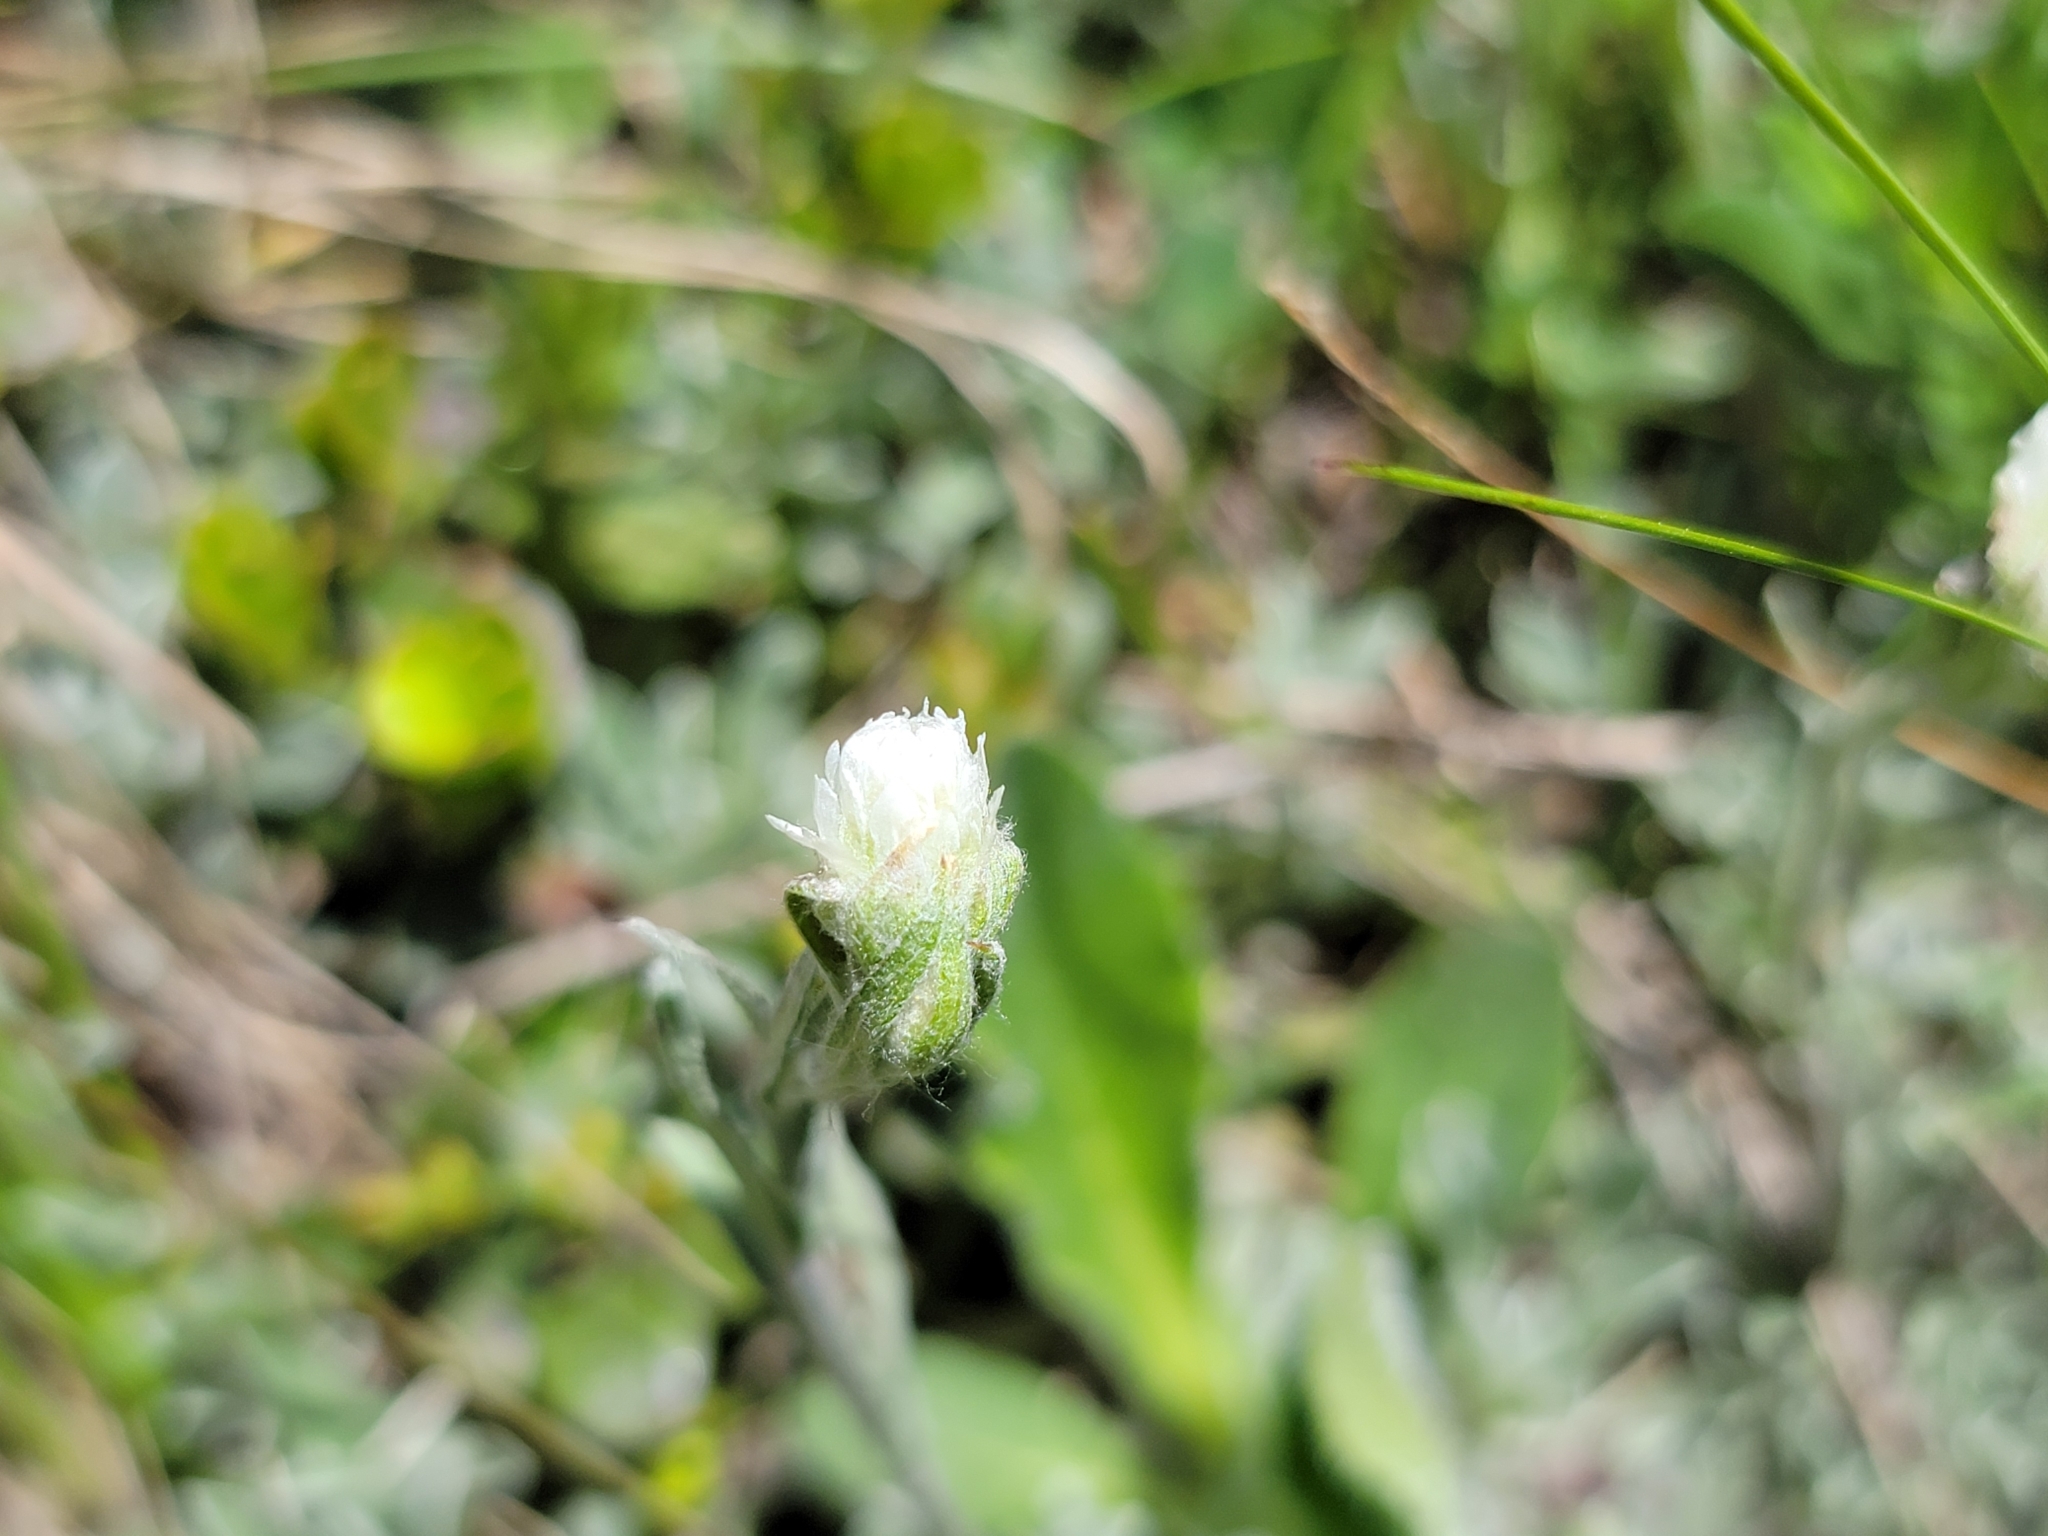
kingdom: Plantae
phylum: Tracheophyta
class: Magnoliopsida
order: Asterales
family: Asteraceae
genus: Antennaria
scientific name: Antennaria dioica
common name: Mountain everlasting
